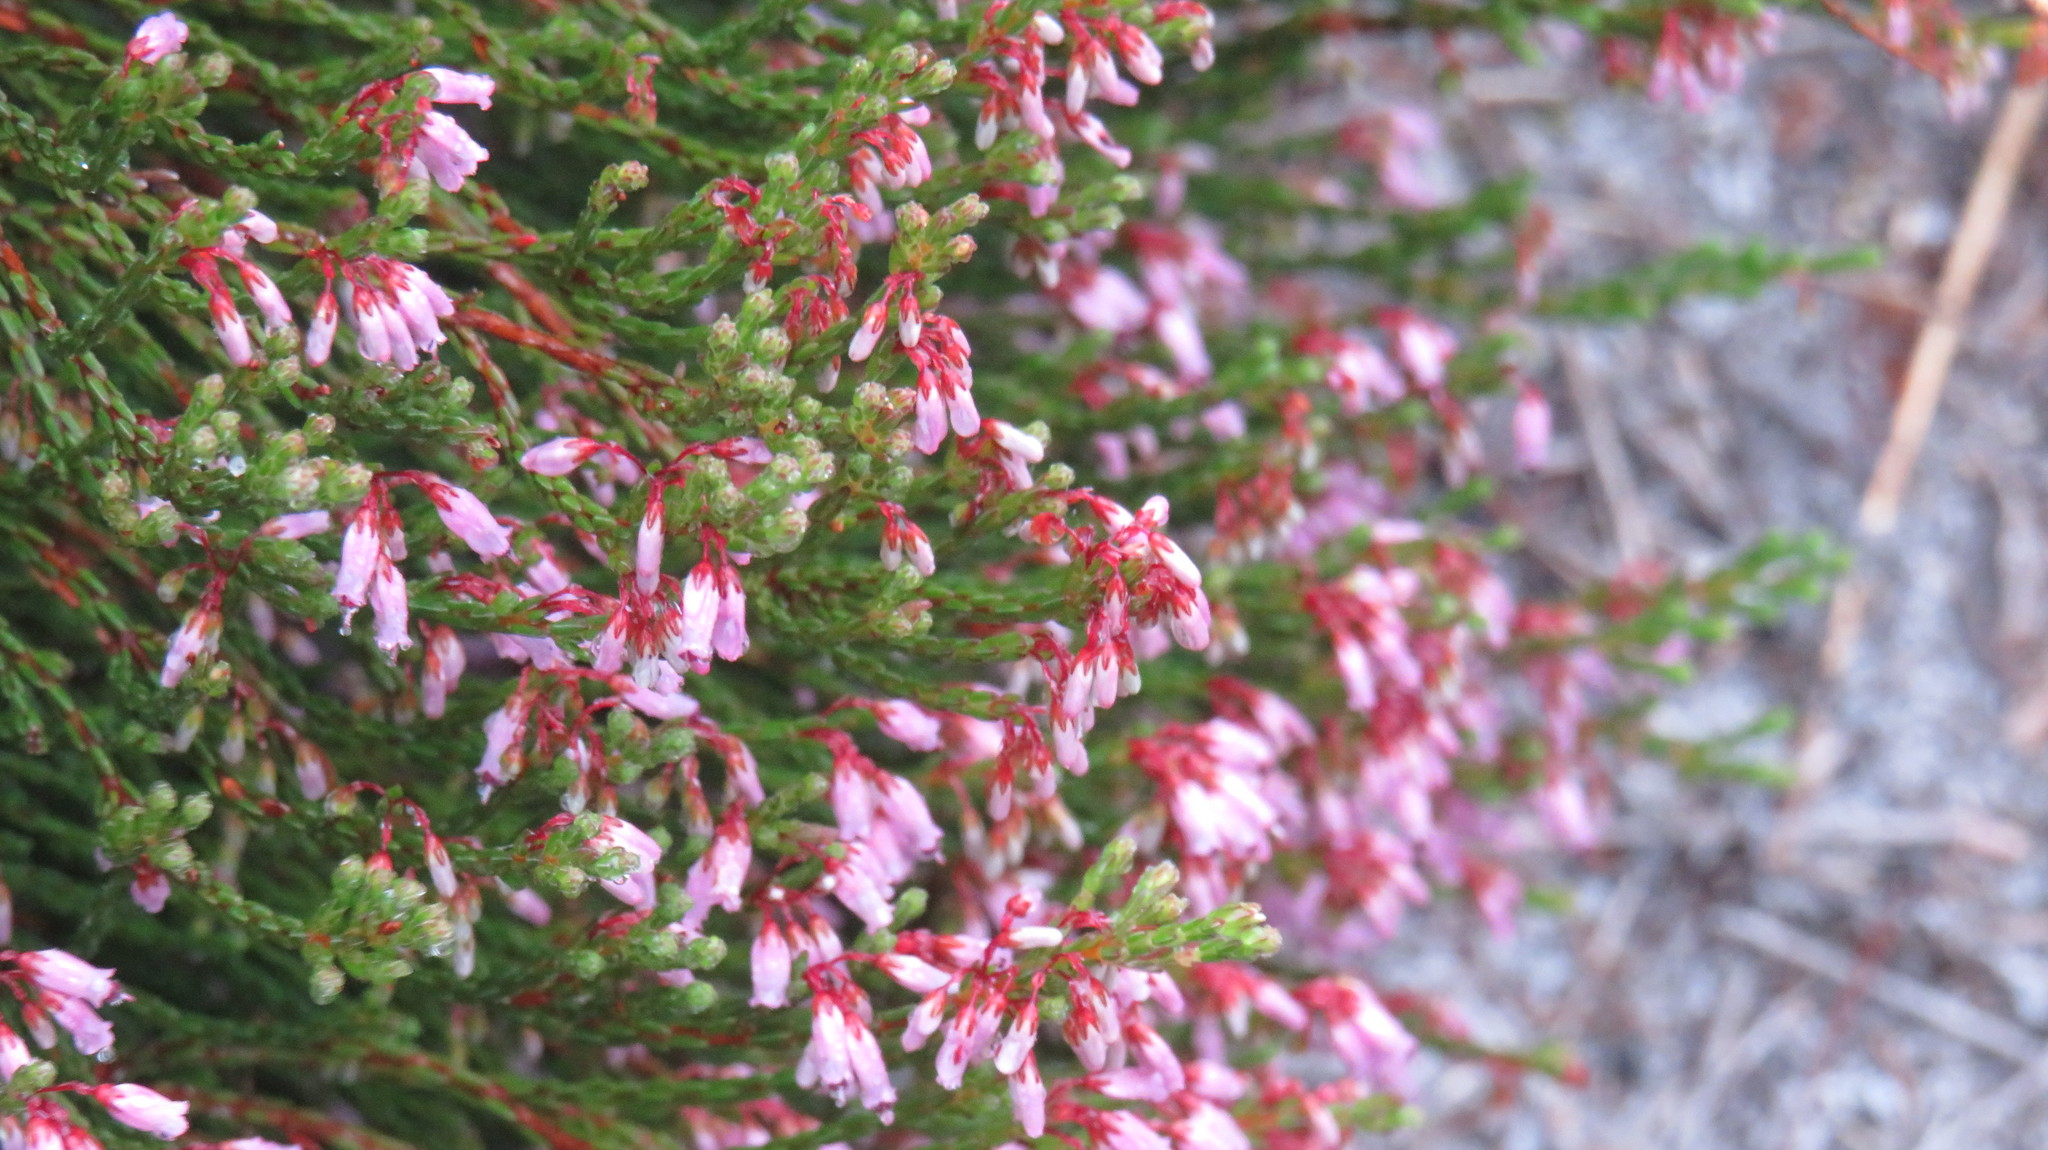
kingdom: Plantae
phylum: Tracheophyta
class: Magnoliopsida
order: Ericales
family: Ericaceae
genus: Erica
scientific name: Erica equisetifolia
